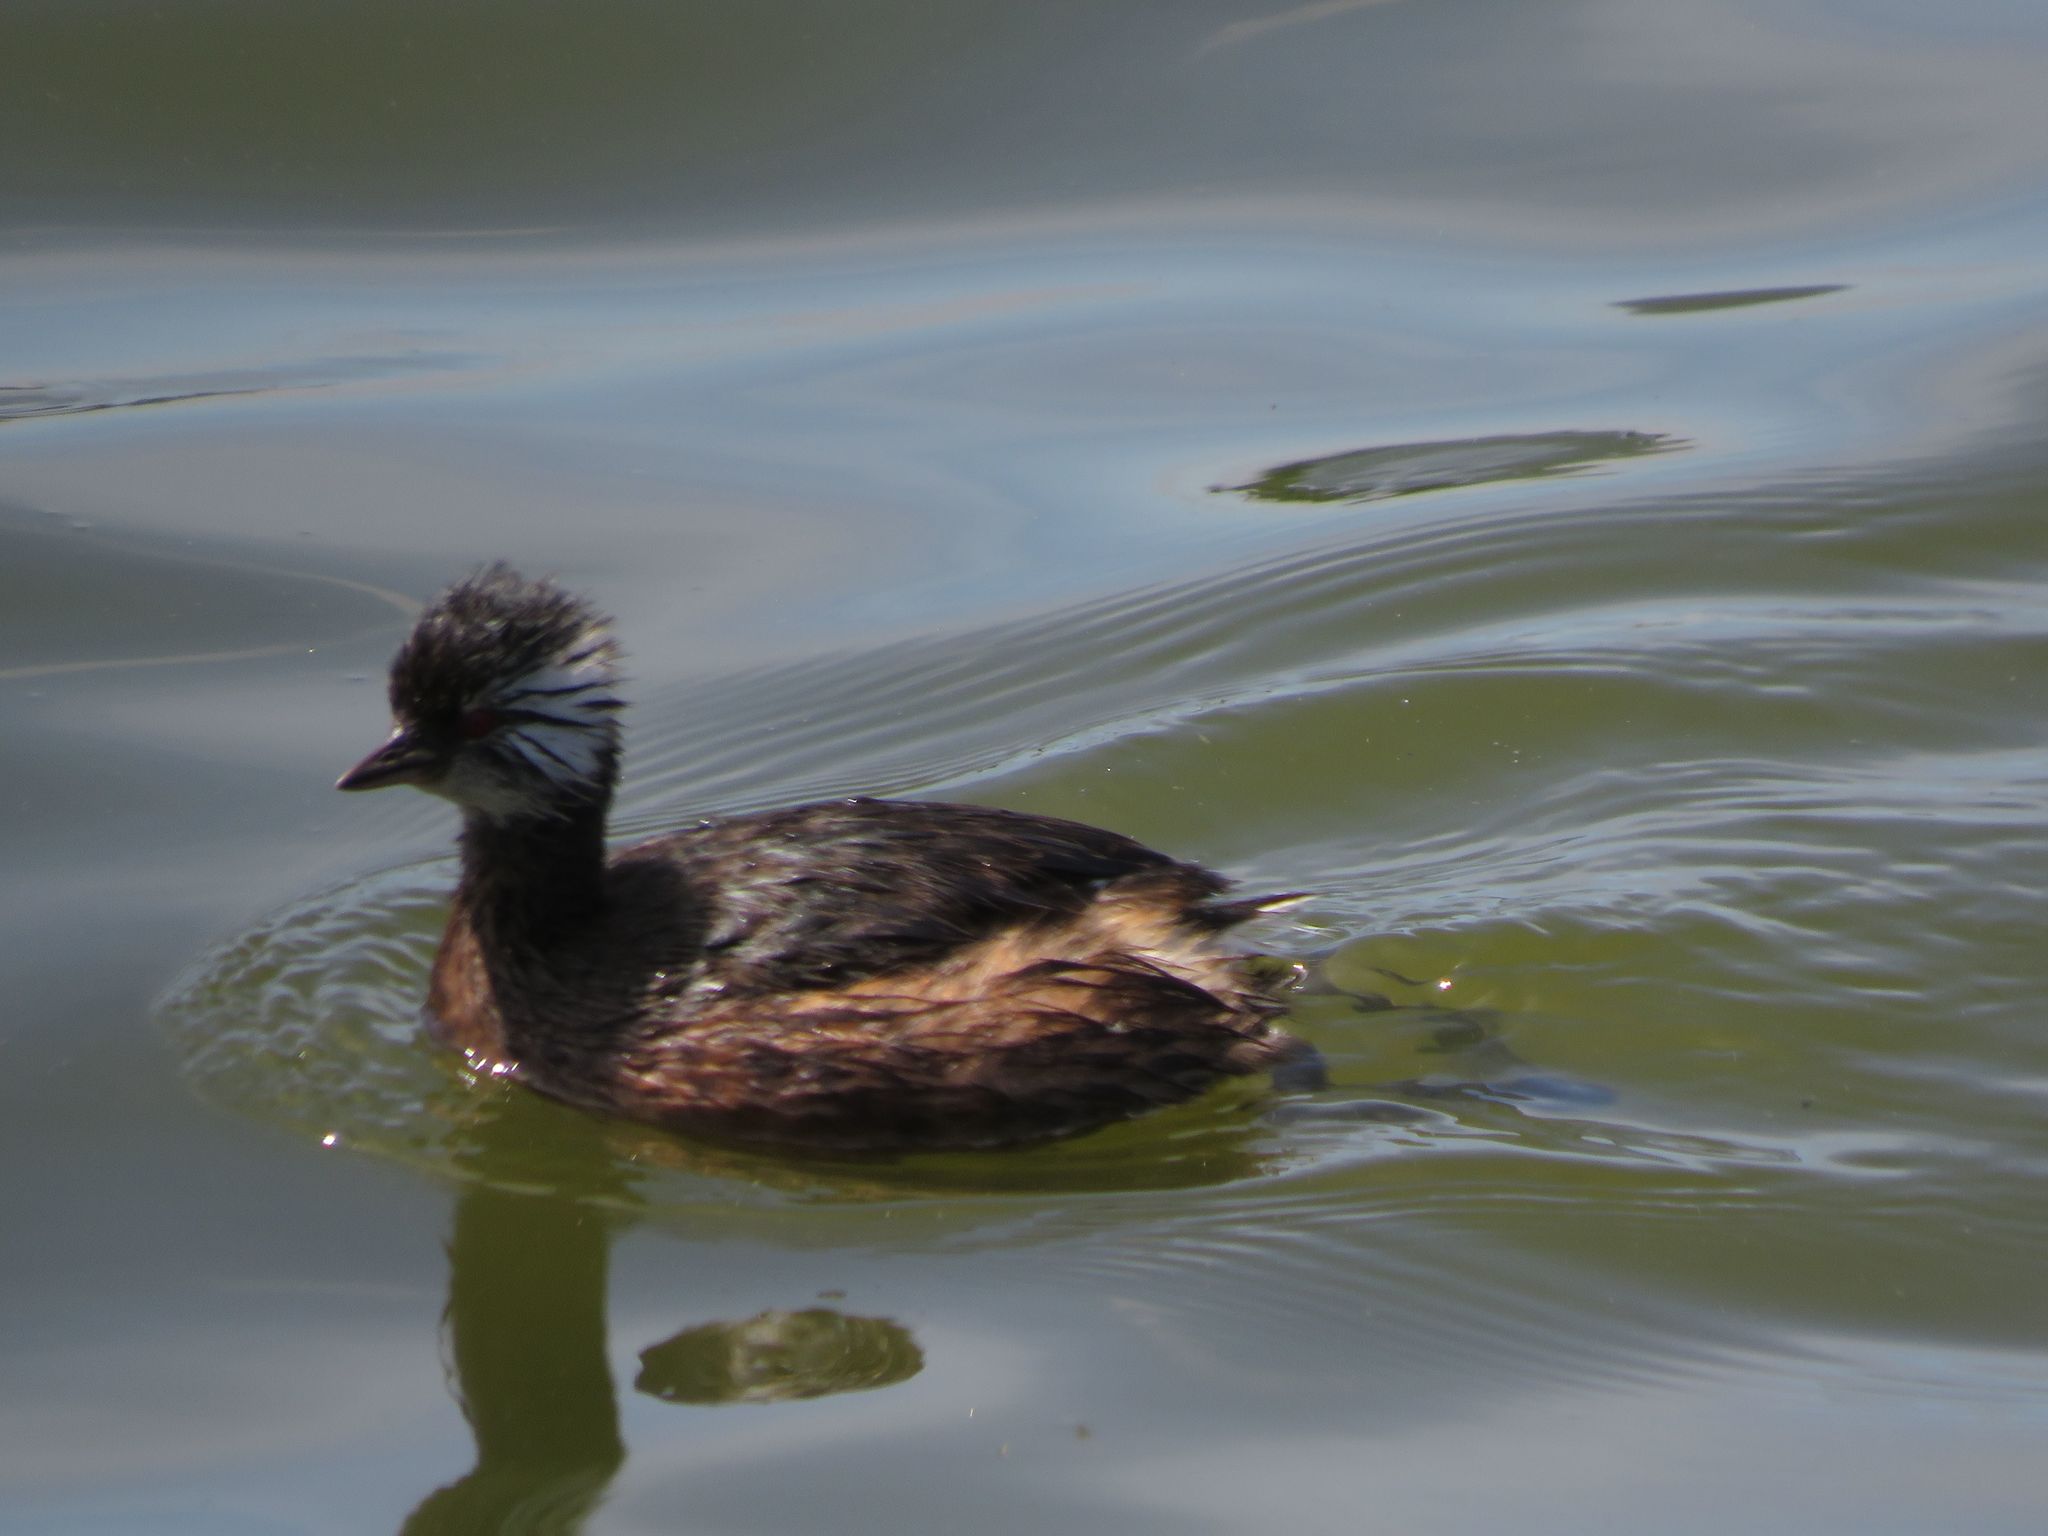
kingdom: Animalia
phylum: Chordata
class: Aves
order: Podicipediformes
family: Podicipedidae
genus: Rollandia
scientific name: Rollandia rolland
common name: White-tufted grebe
